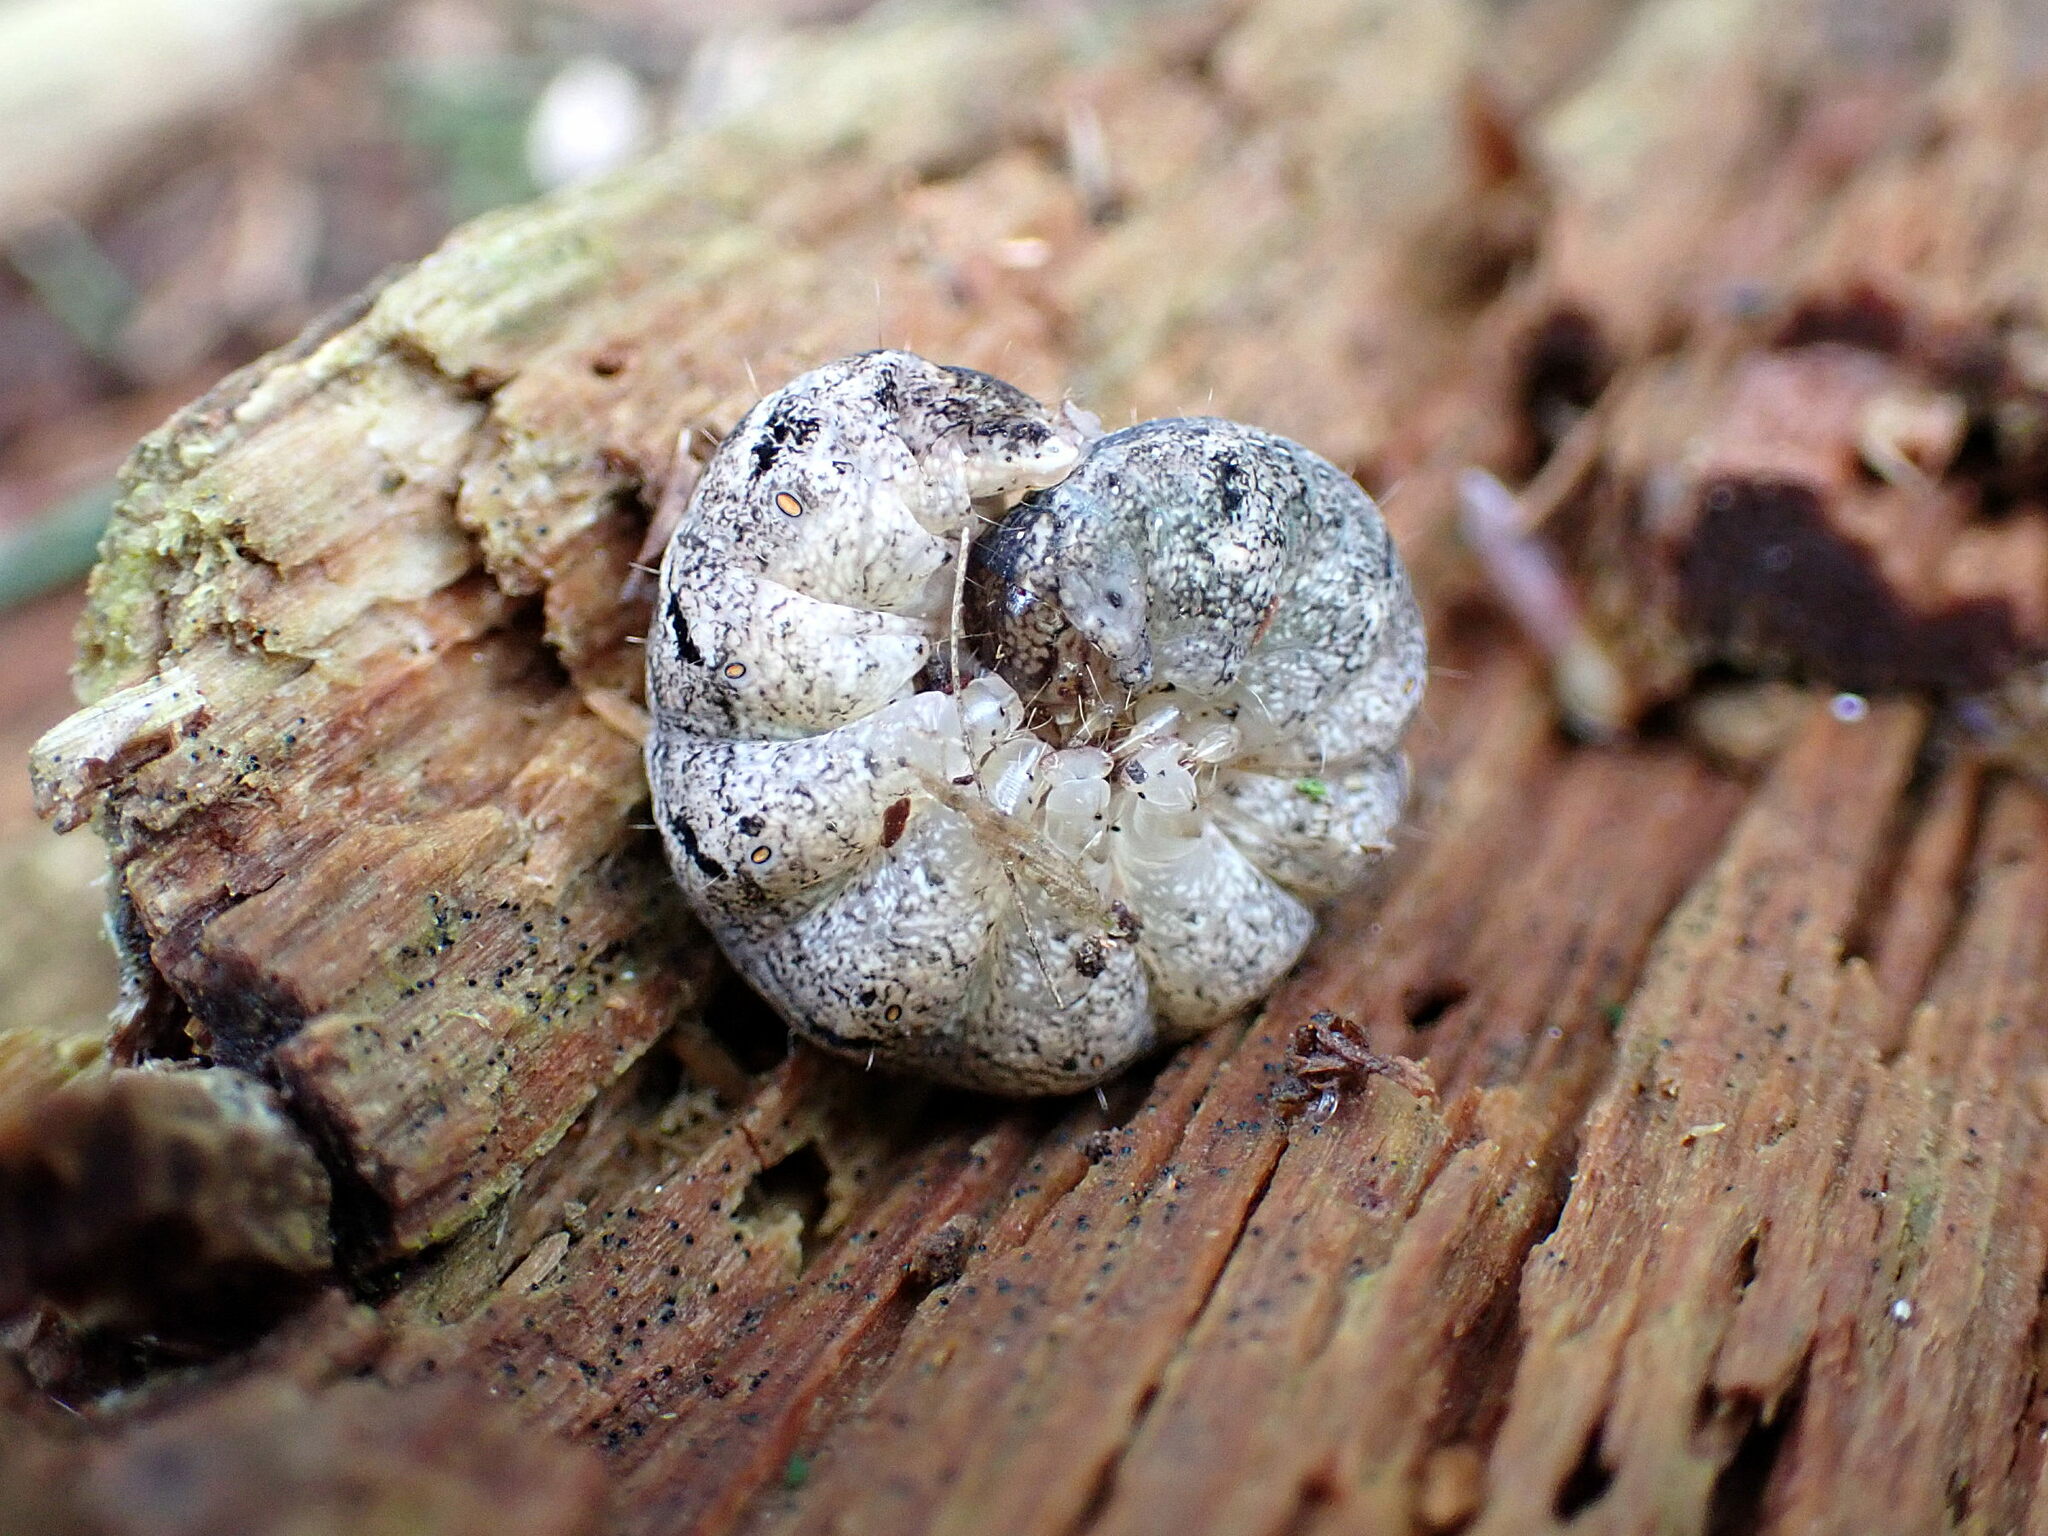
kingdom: Animalia
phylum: Arthropoda
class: Insecta
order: Lepidoptera
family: Noctuidae
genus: Polia
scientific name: Polia nebulosa
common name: Grey arches
